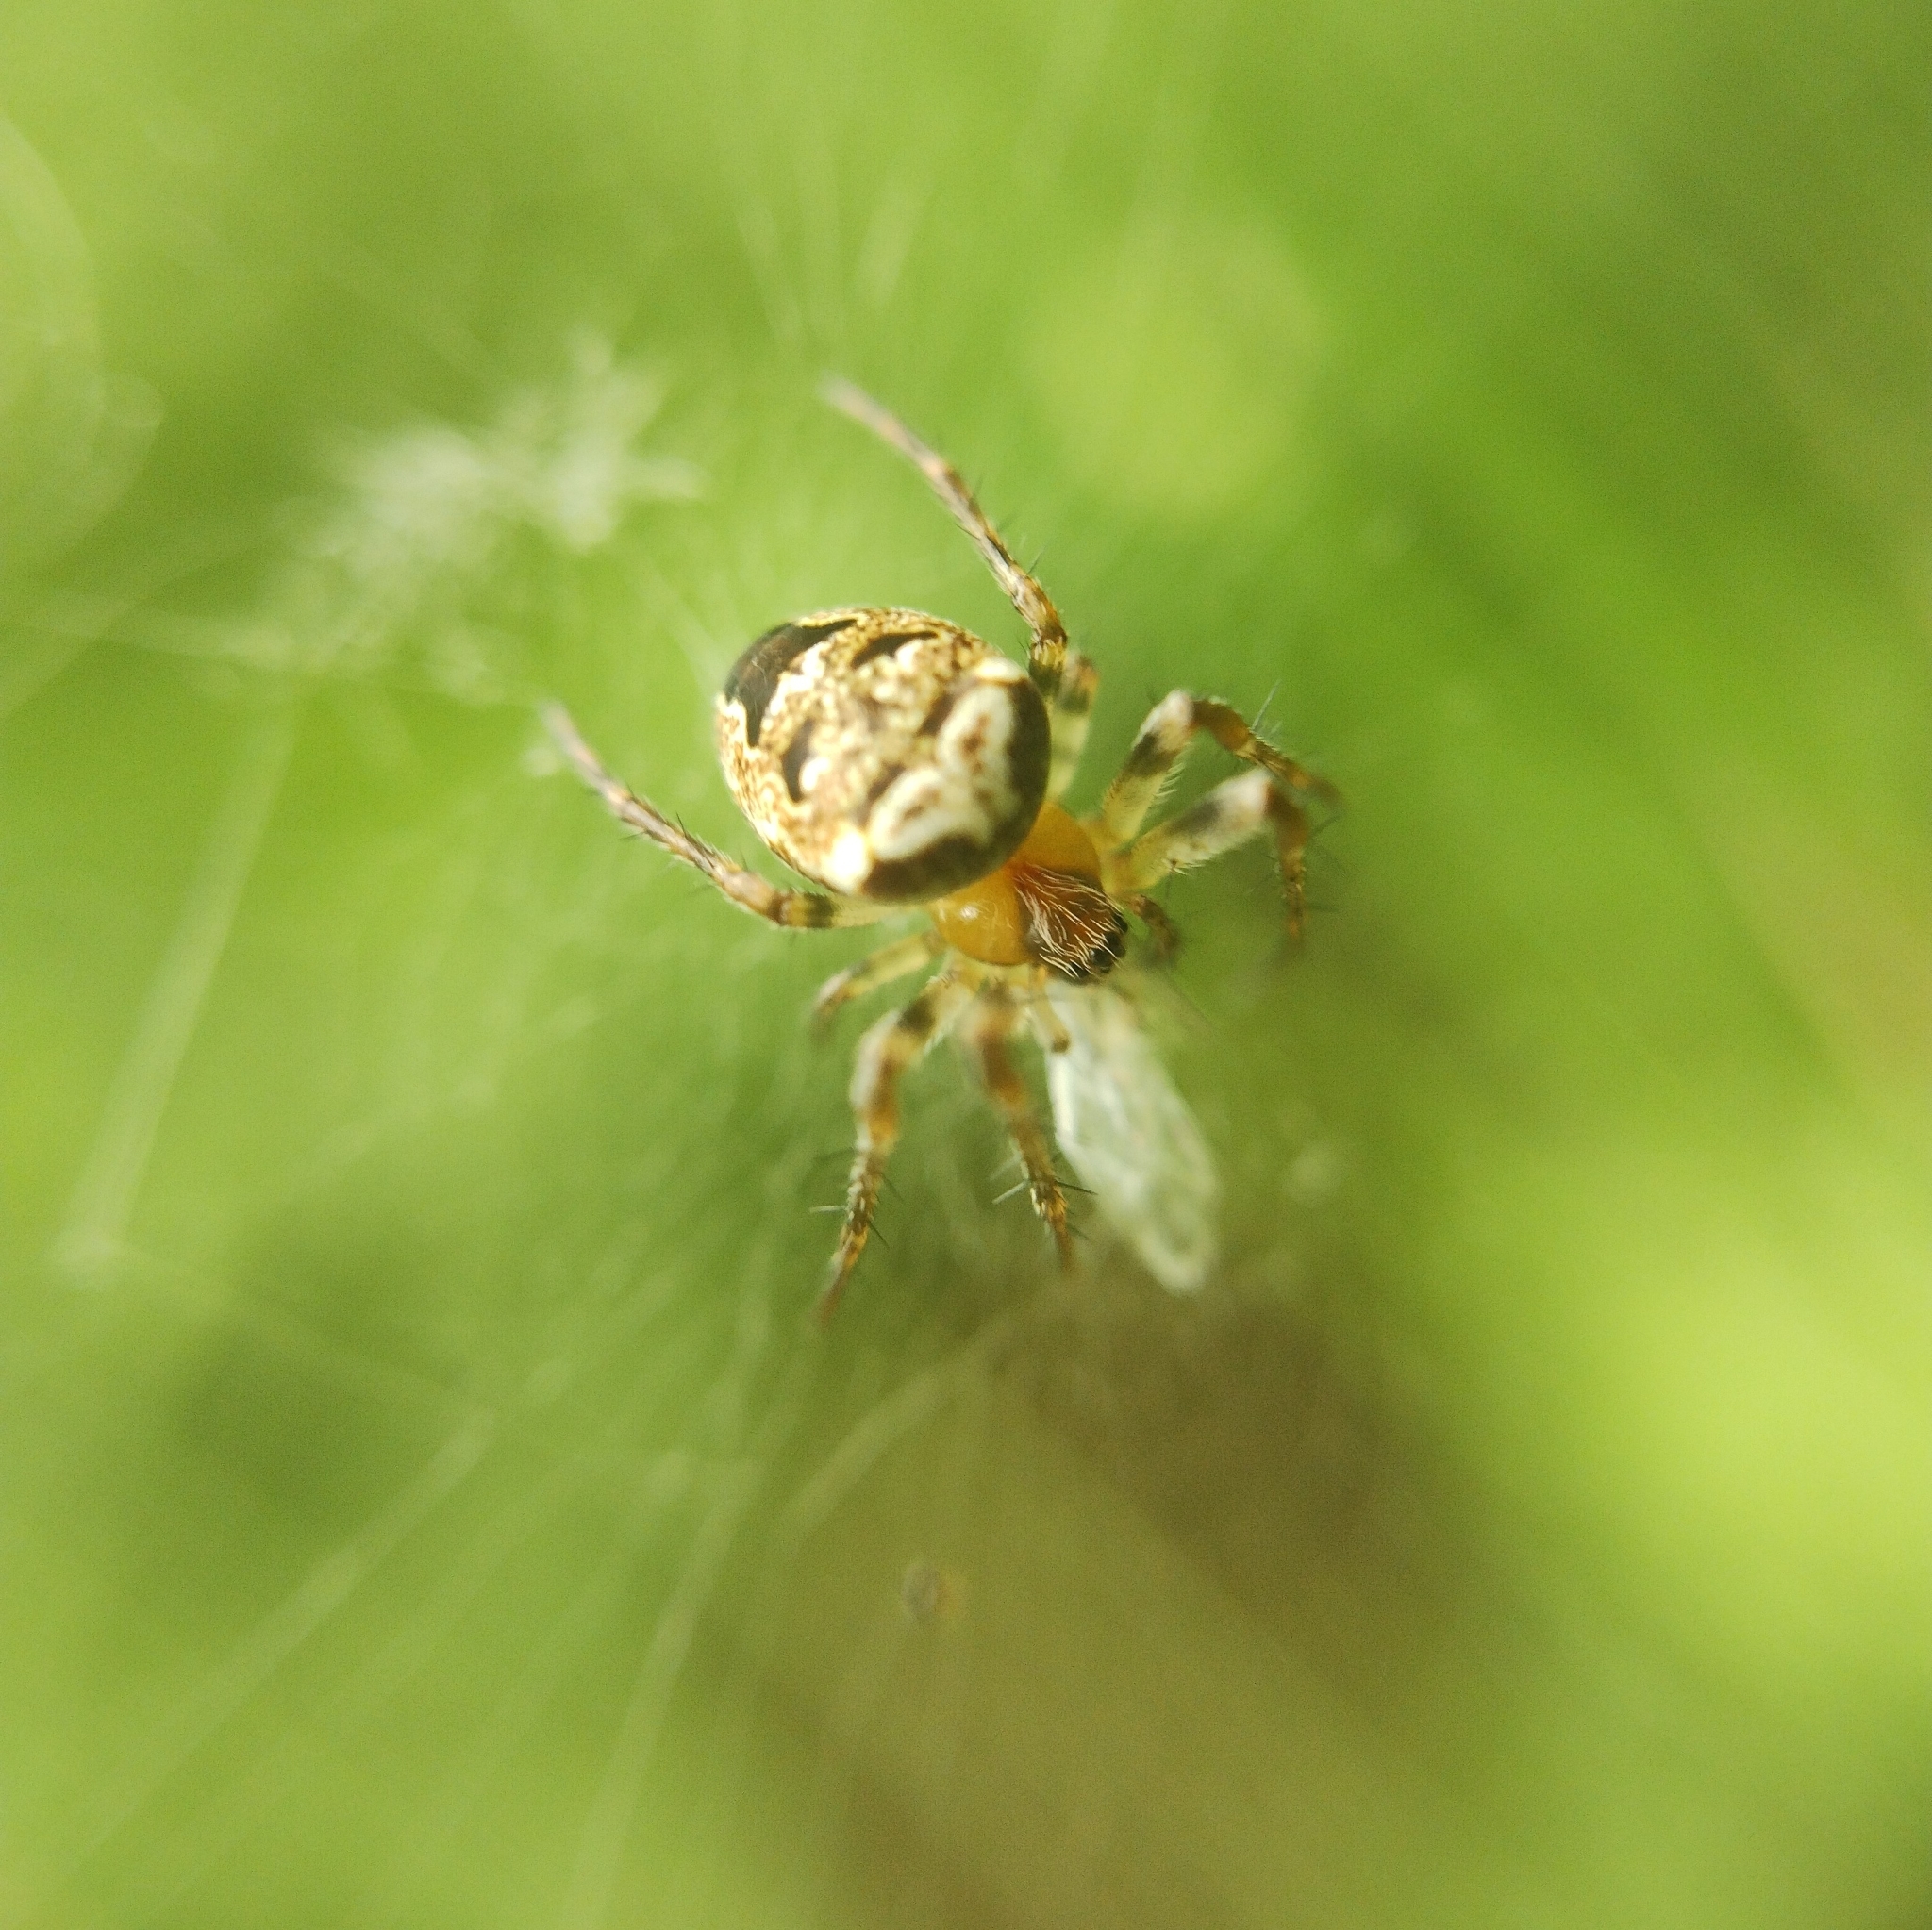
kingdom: Animalia
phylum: Arthropoda
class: Arachnida
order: Araneae
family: Araneidae
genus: Zilla
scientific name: Zilla diodia
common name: Zilla diodia
